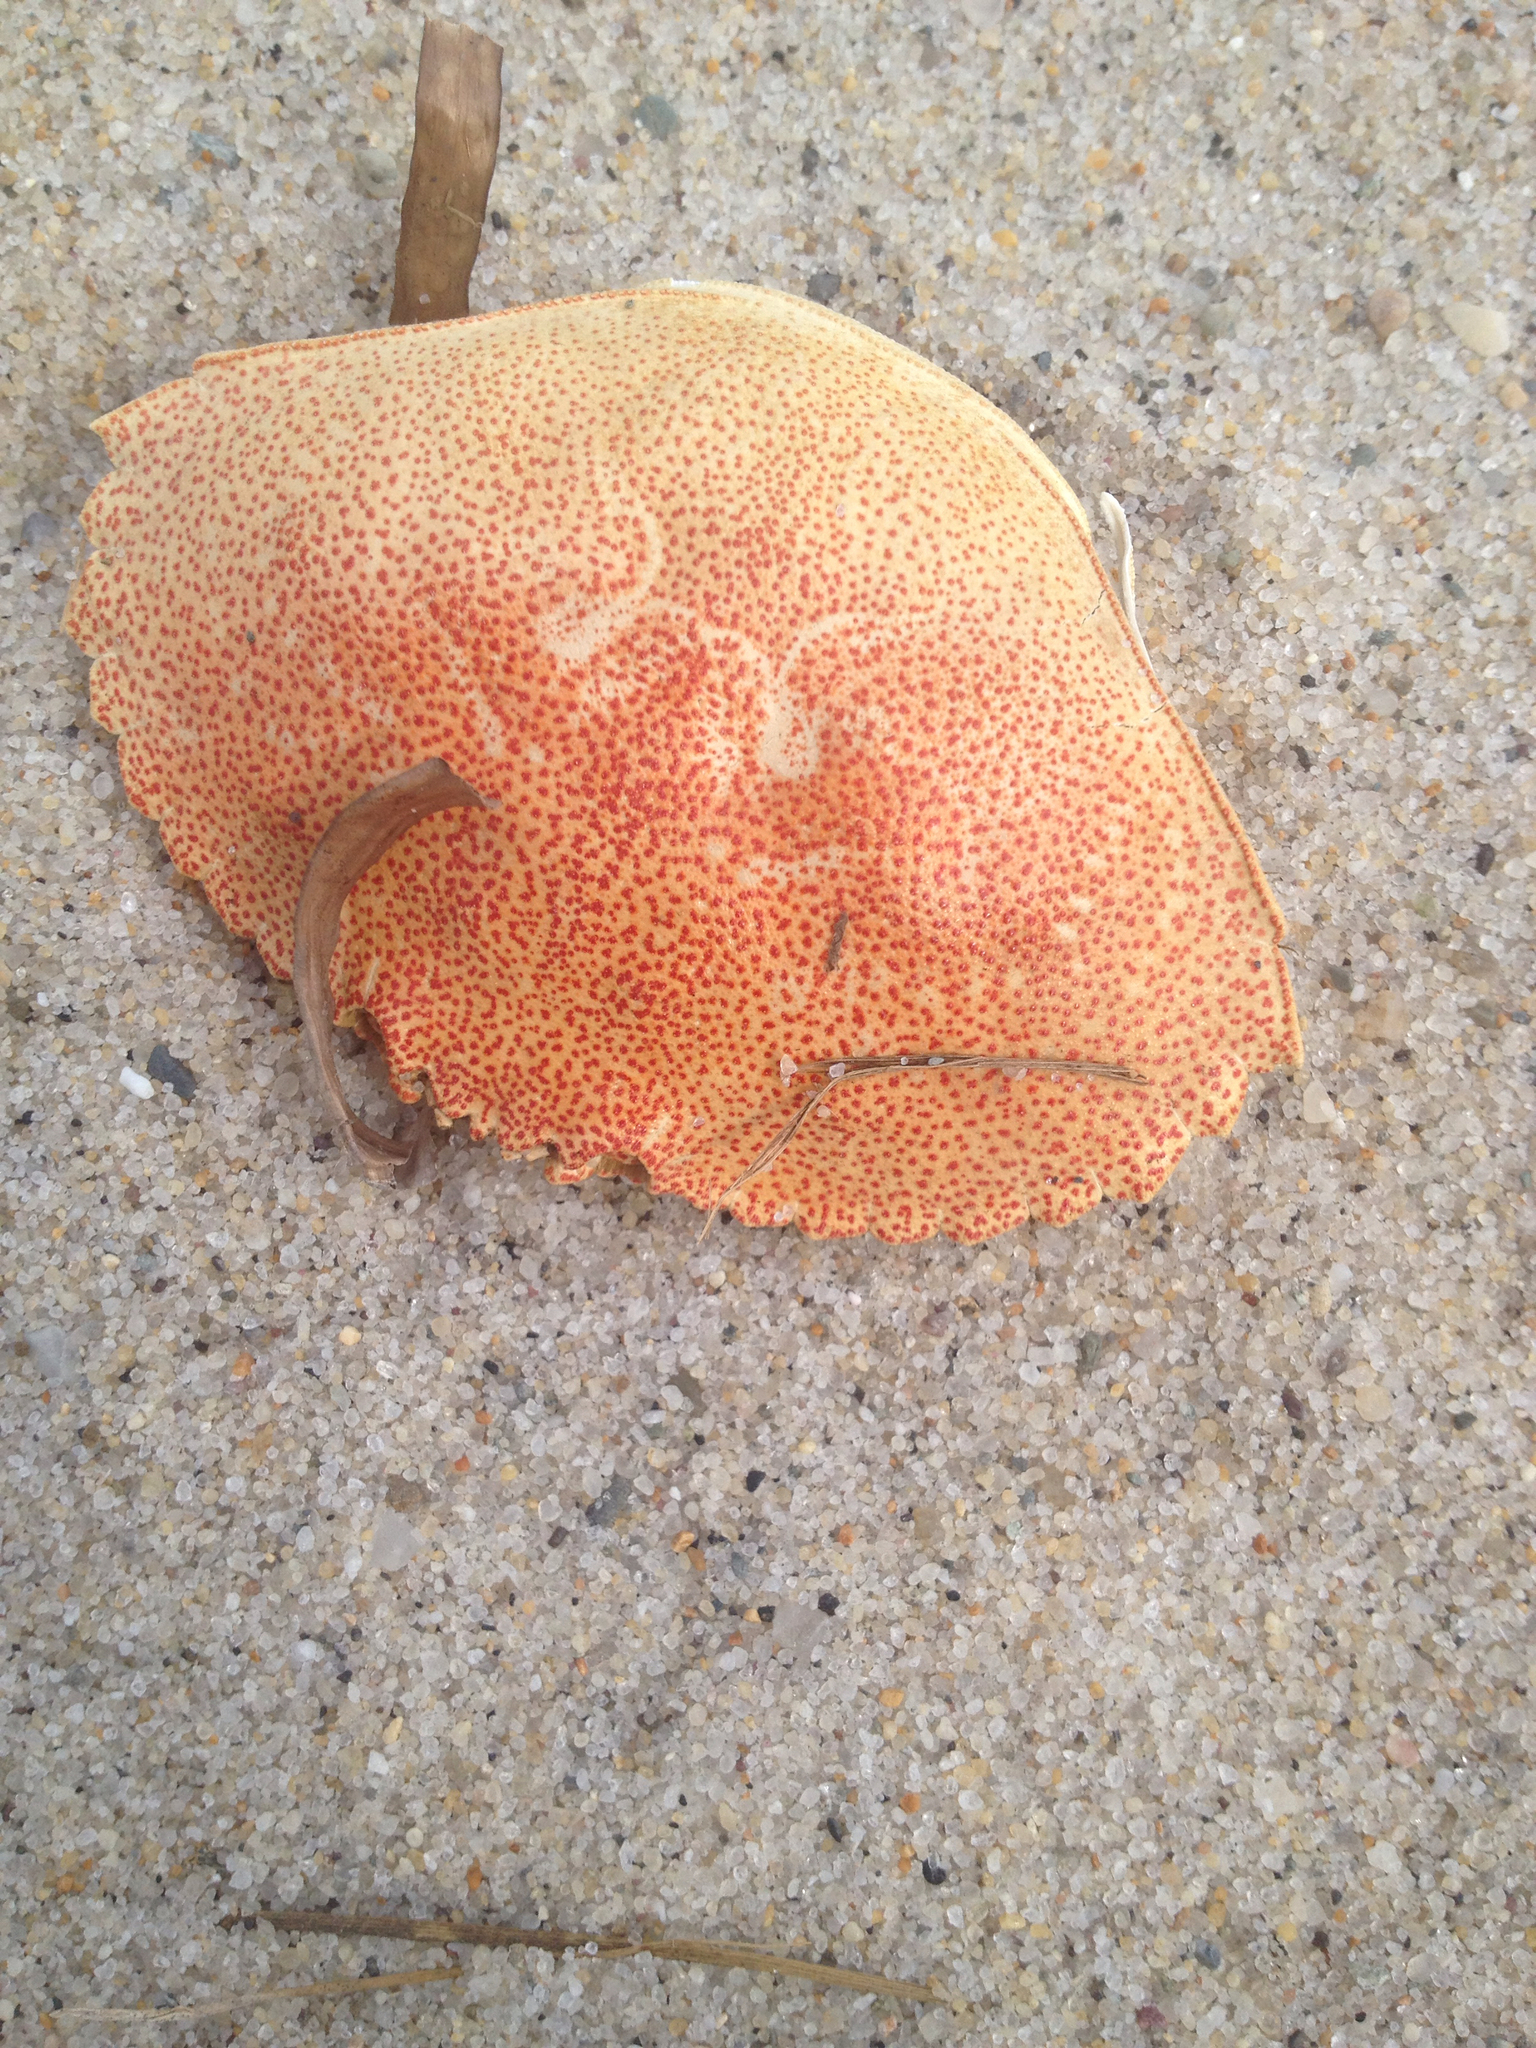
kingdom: Animalia
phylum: Arthropoda
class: Malacostraca
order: Decapoda
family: Cancridae
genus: Cancer
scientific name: Cancer irroratus
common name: Atlantic rock crab
